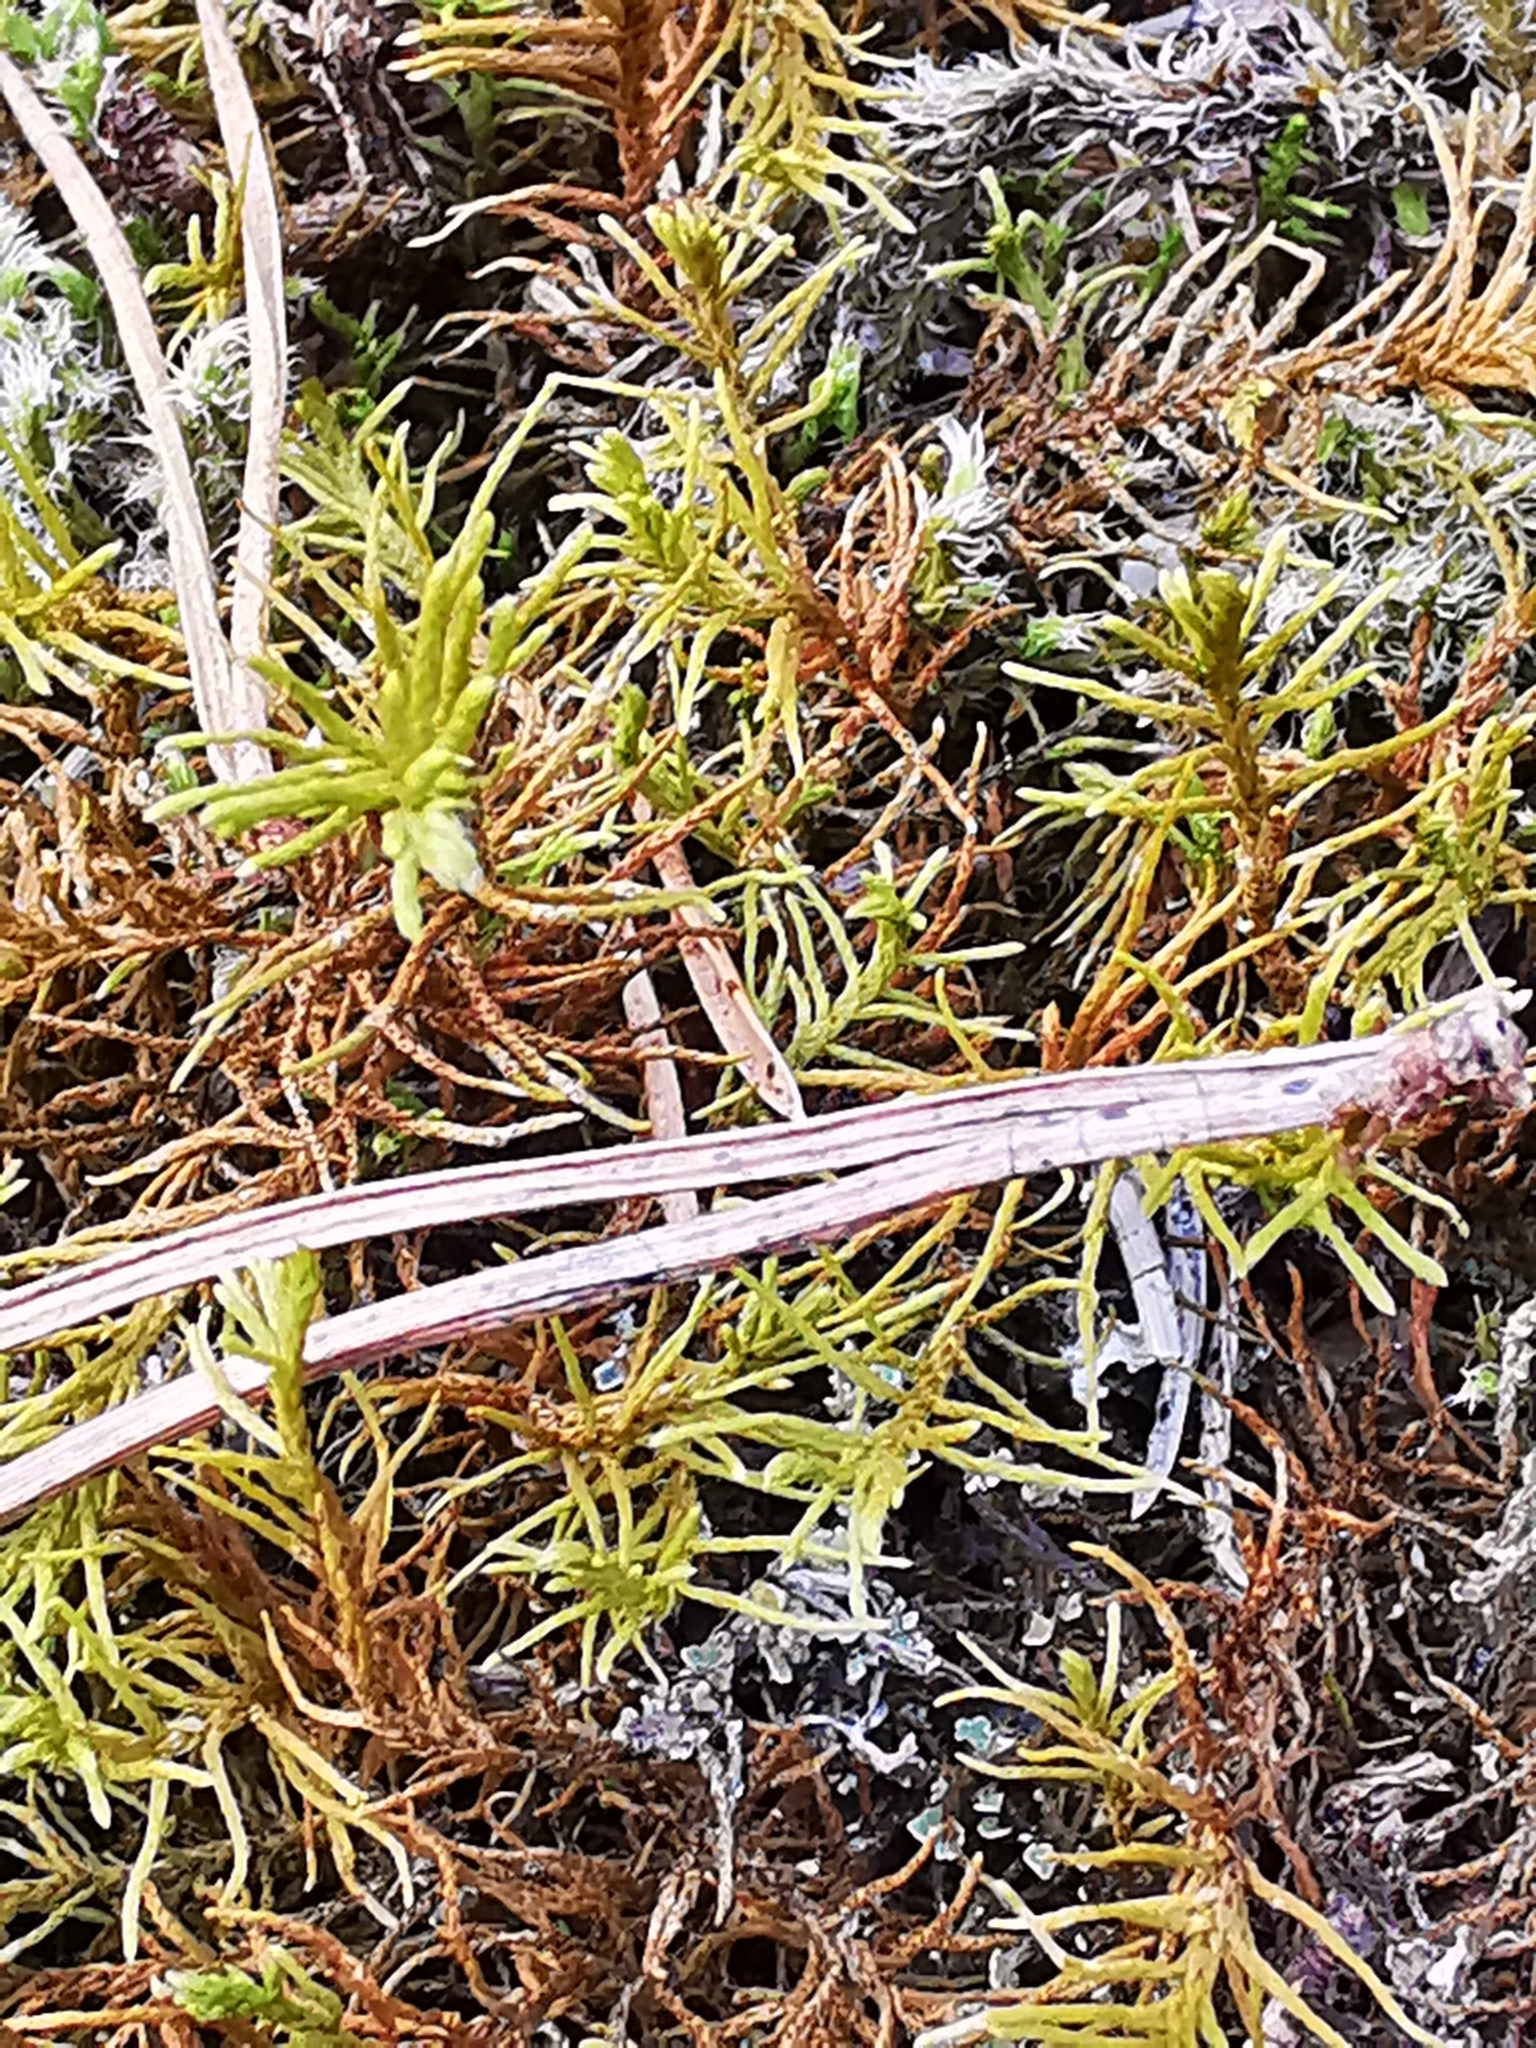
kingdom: Plantae
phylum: Bryophyta
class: Bryopsida
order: Hypnales
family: Thuidiaceae
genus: Abietinella
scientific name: Abietinella abietina
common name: Wiry fern moss
